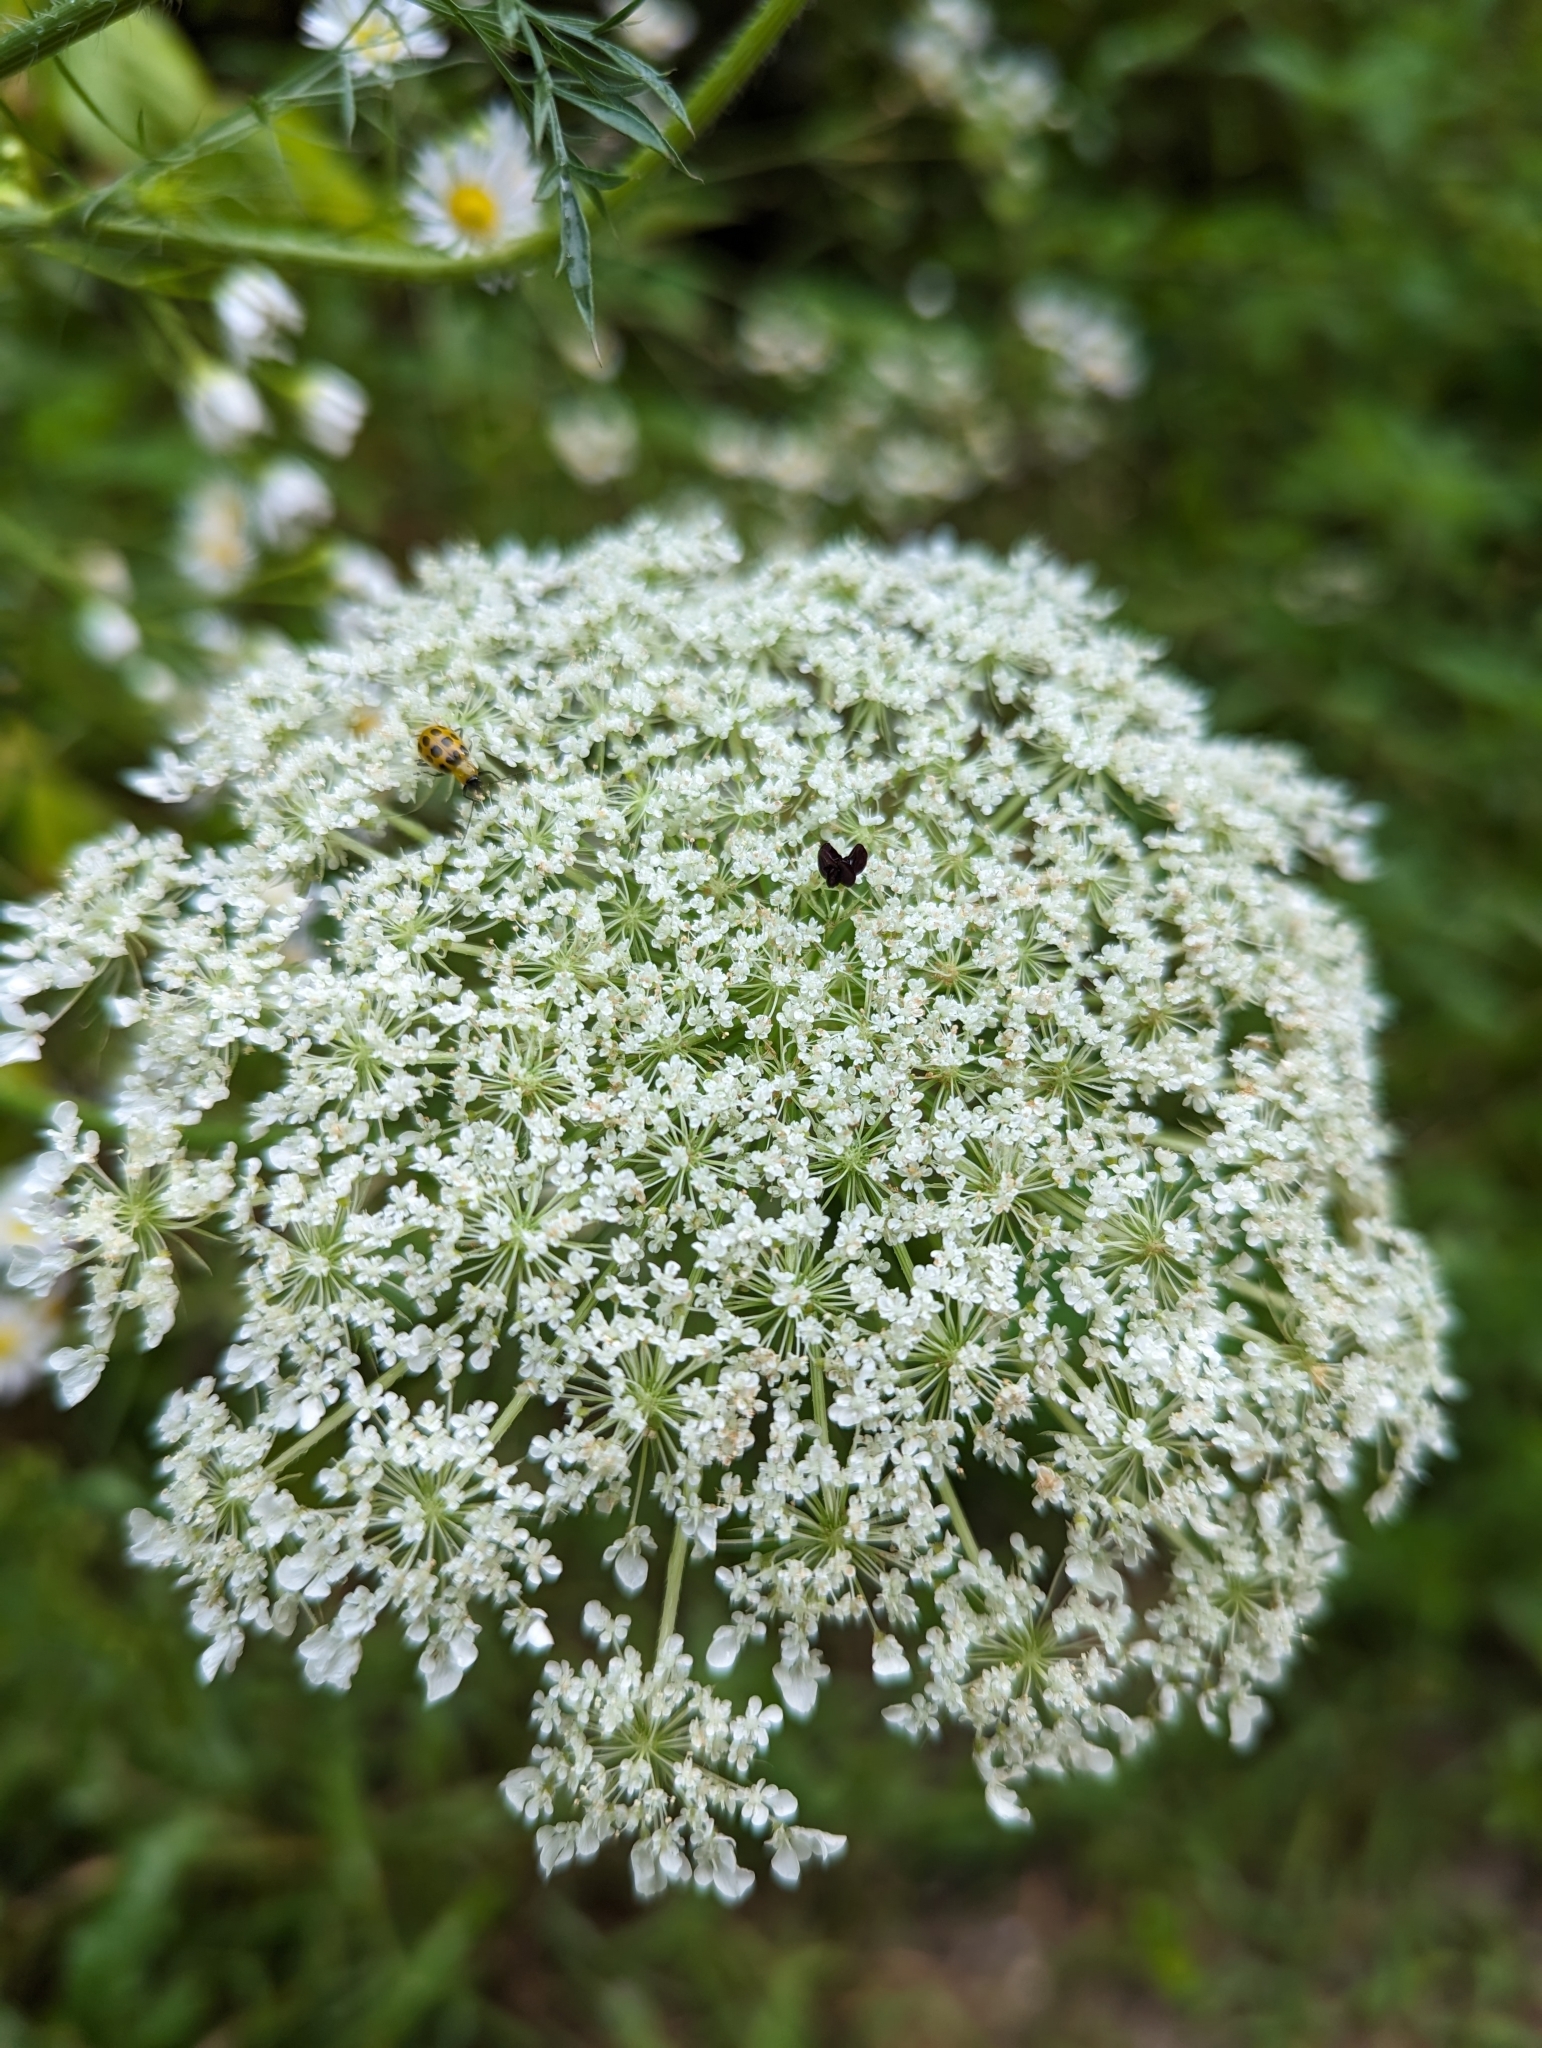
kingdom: Plantae
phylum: Tracheophyta
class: Magnoliopsida
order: Apiales
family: Apiaceae
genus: Daucus
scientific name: Daucus carota
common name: Wild carrot
